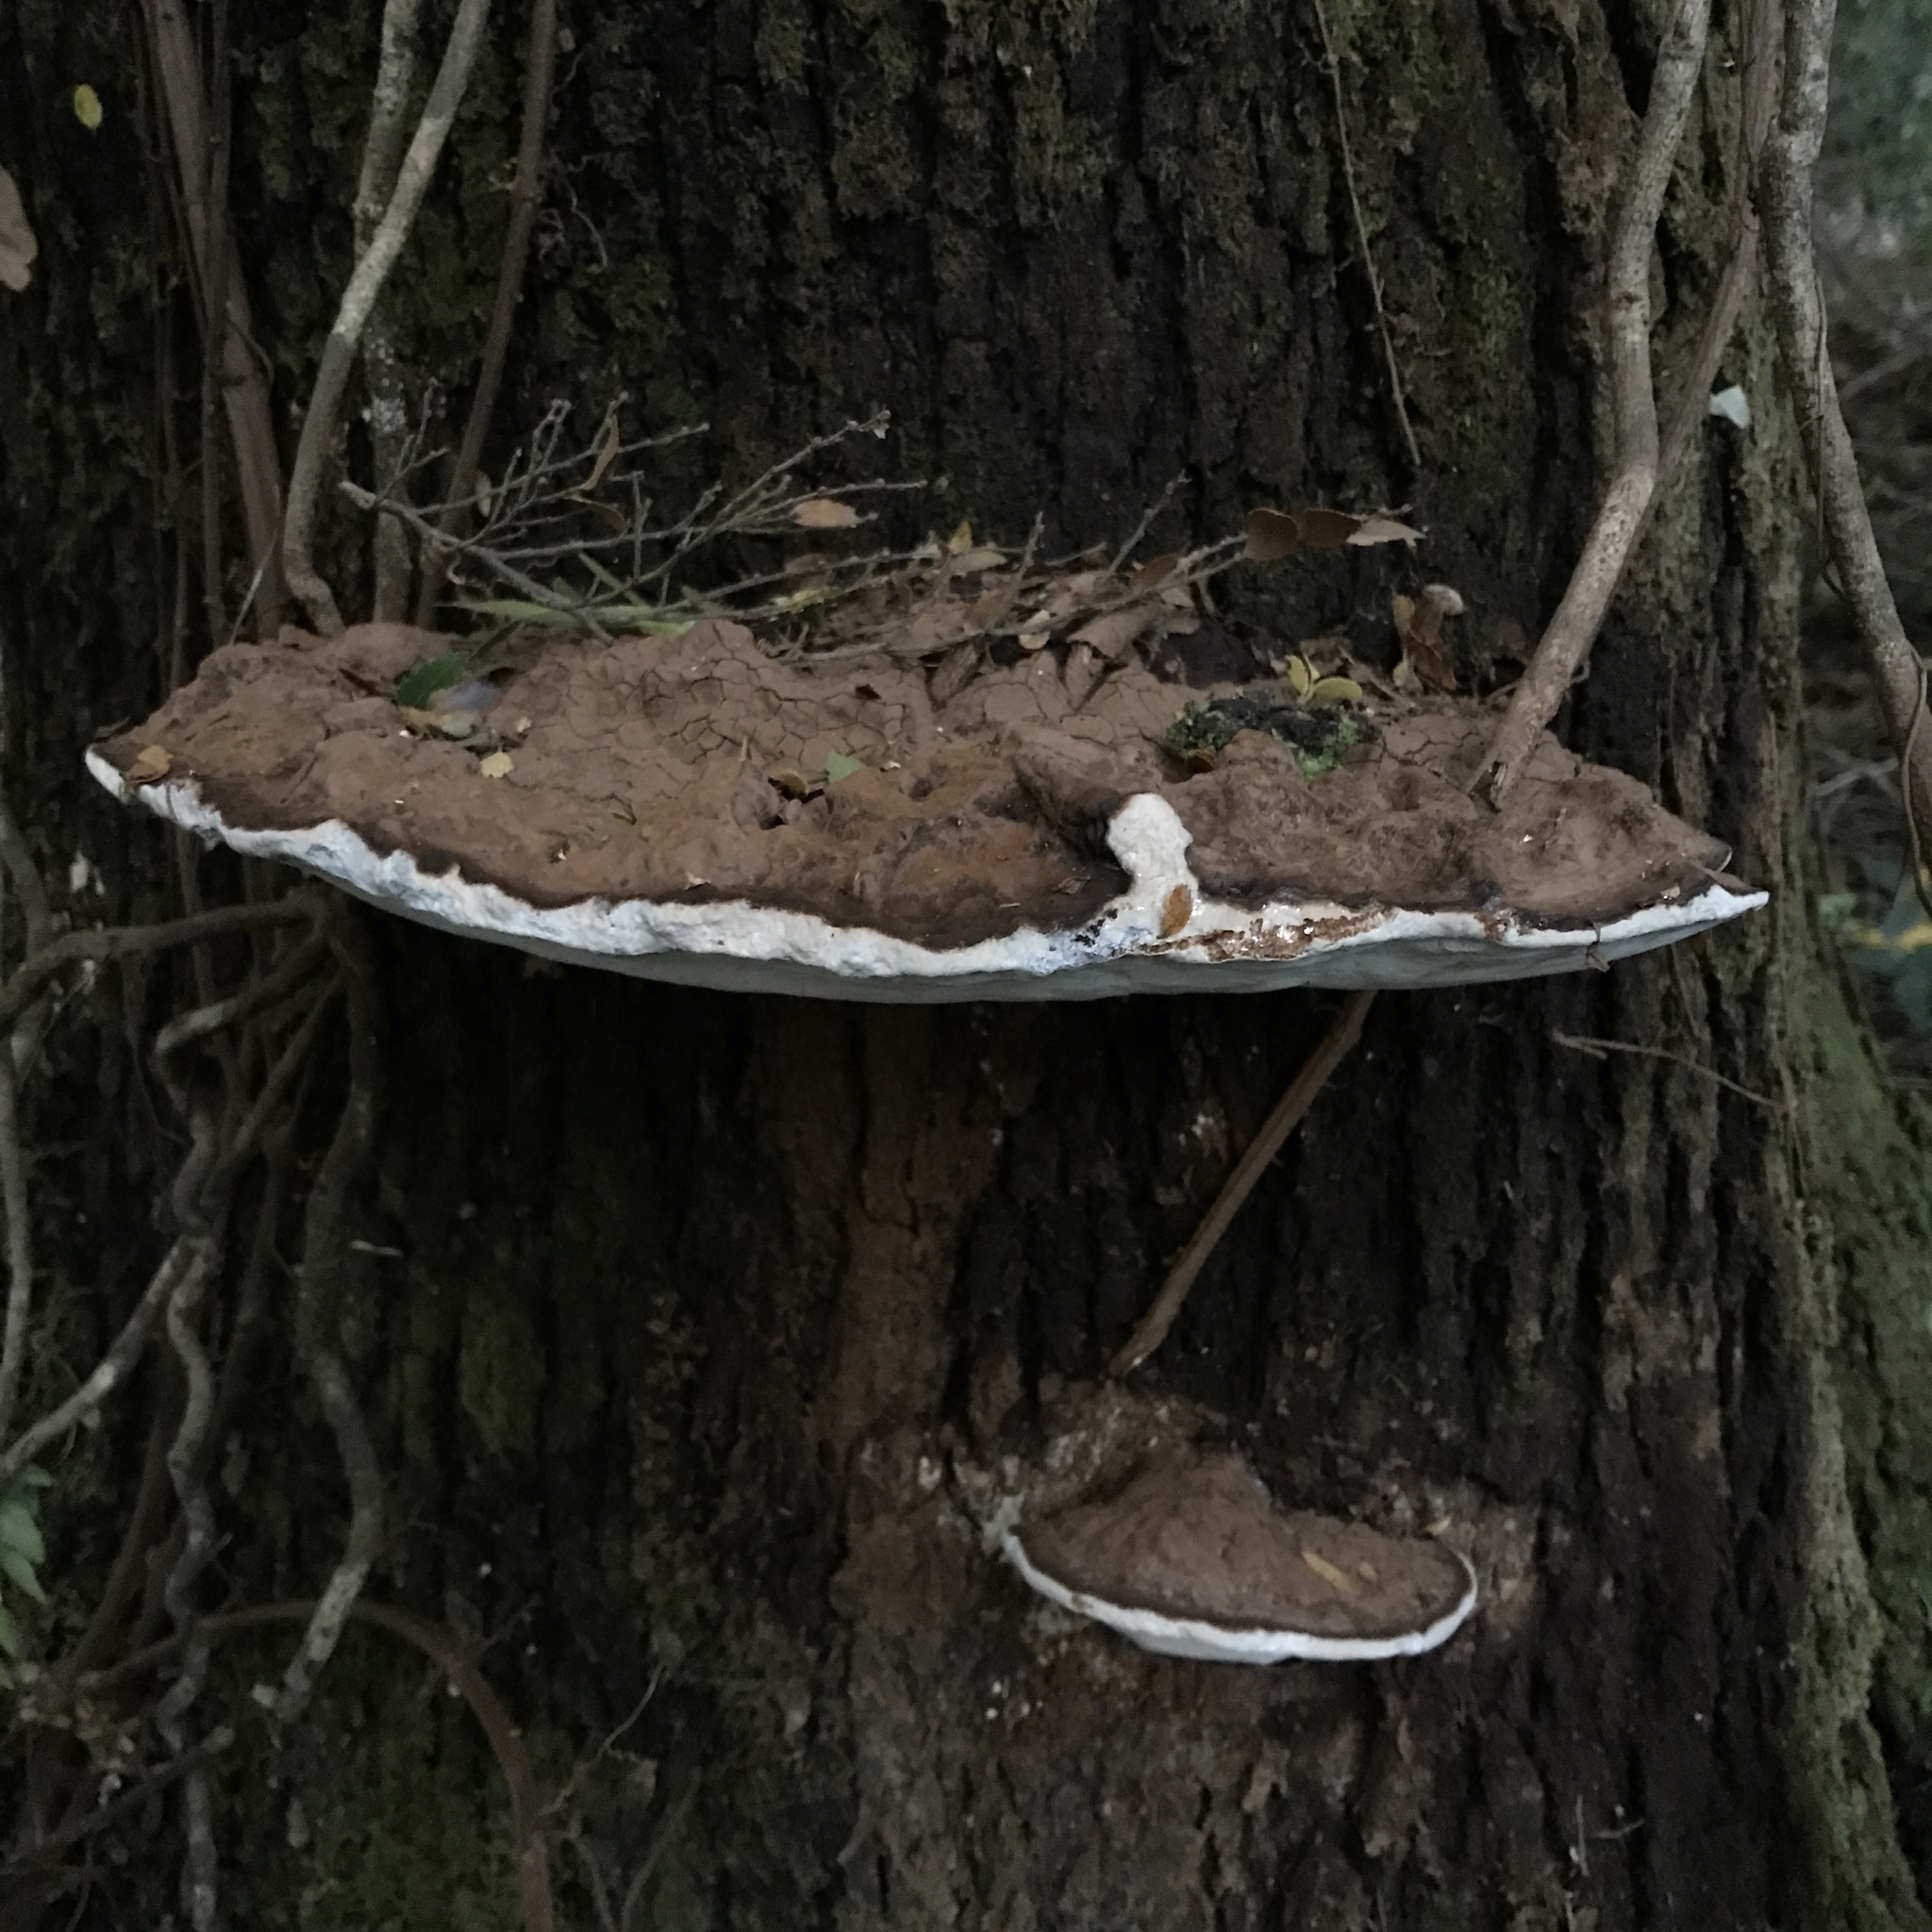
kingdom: Fungi
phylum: Basidiomycota
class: Agaricomycetes
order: Polyporales
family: Polyporaceae
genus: Ganoderma
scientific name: Ganoderma australe
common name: Southern bracket
